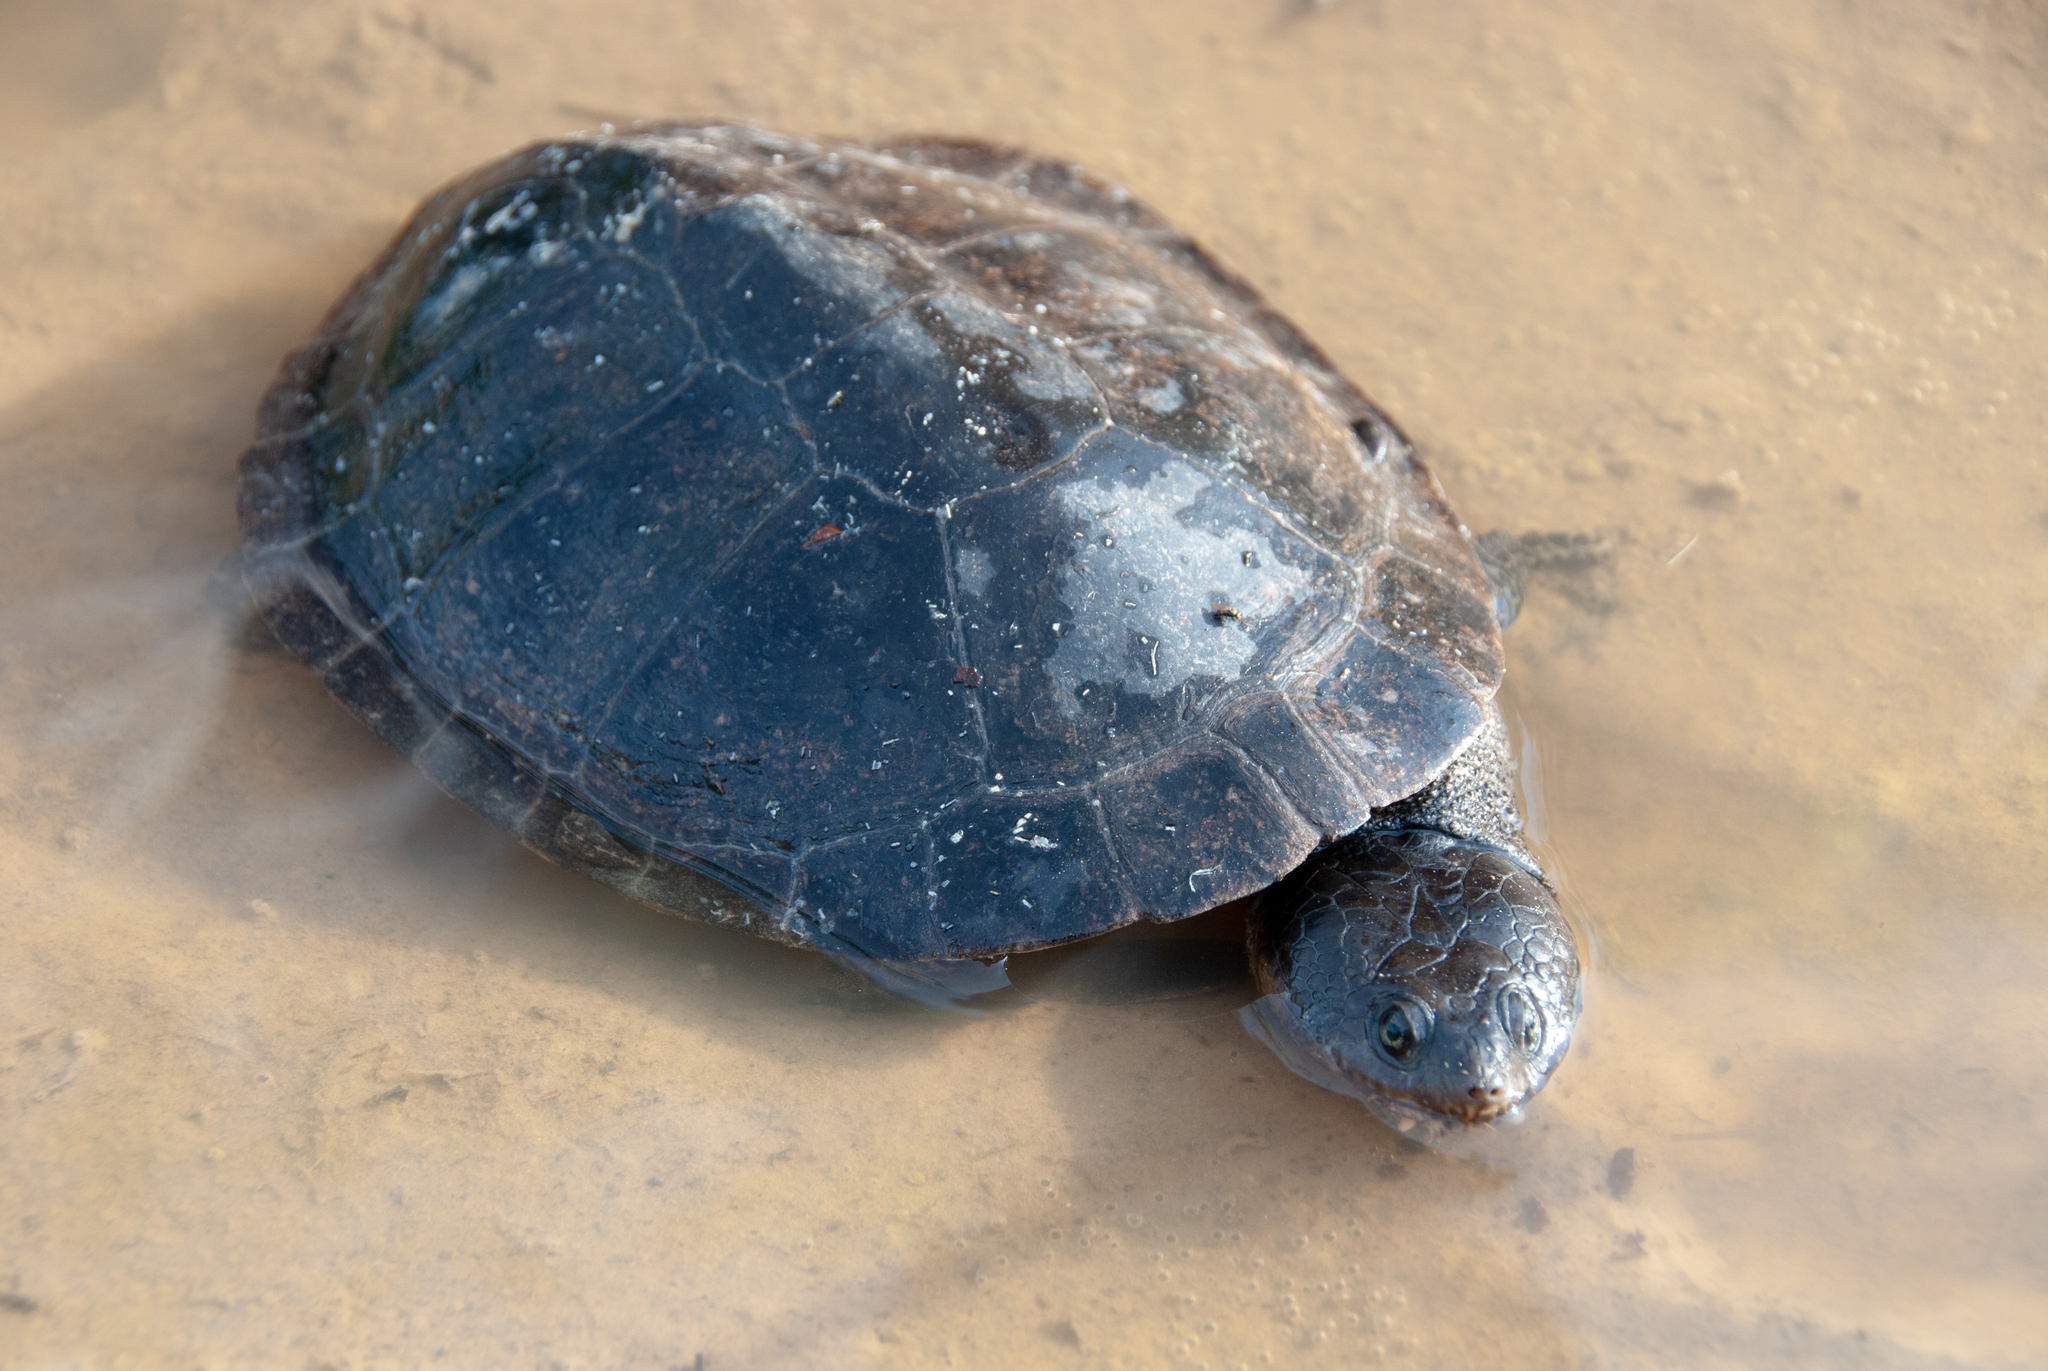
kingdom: Animalia
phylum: Chordata
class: Testudines
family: Chelidae
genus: Mesoclemmys
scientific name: Mesoclemmys gibba
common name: Gibba turtle
